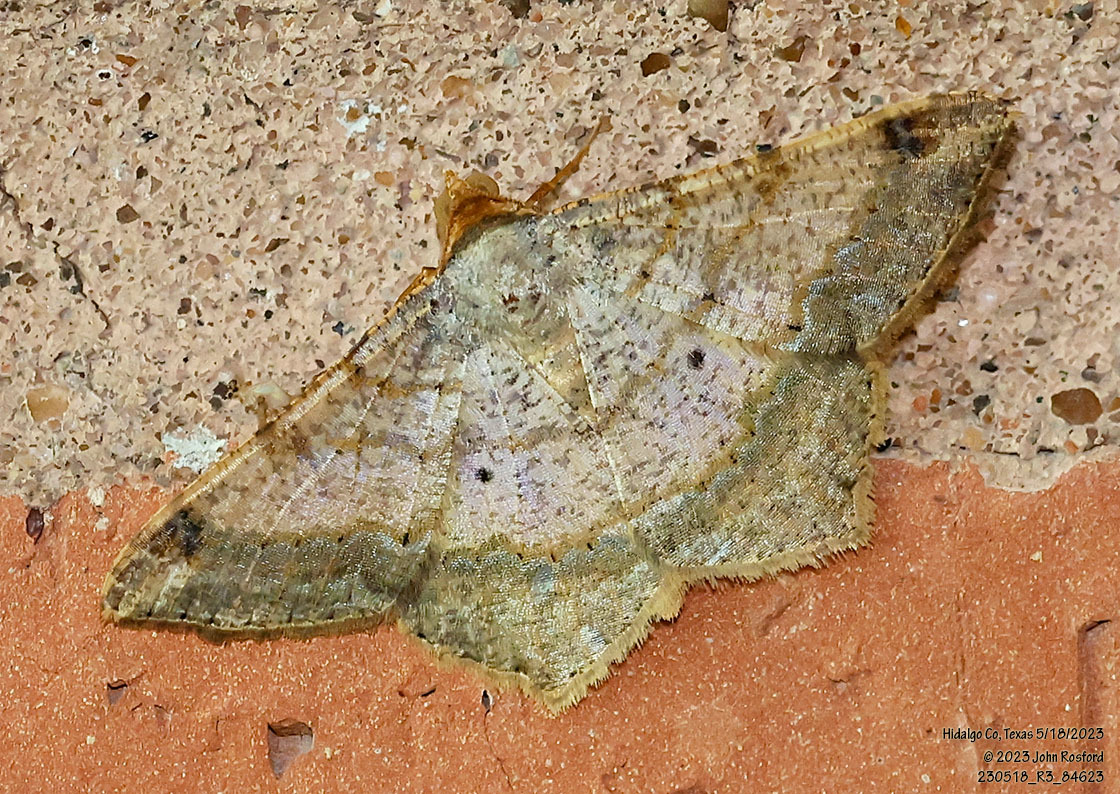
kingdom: Animalia
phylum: Arthropoda
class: Insecta
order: Lepidoptera
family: Geometridae
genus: Macaria
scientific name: Macaria abydata
